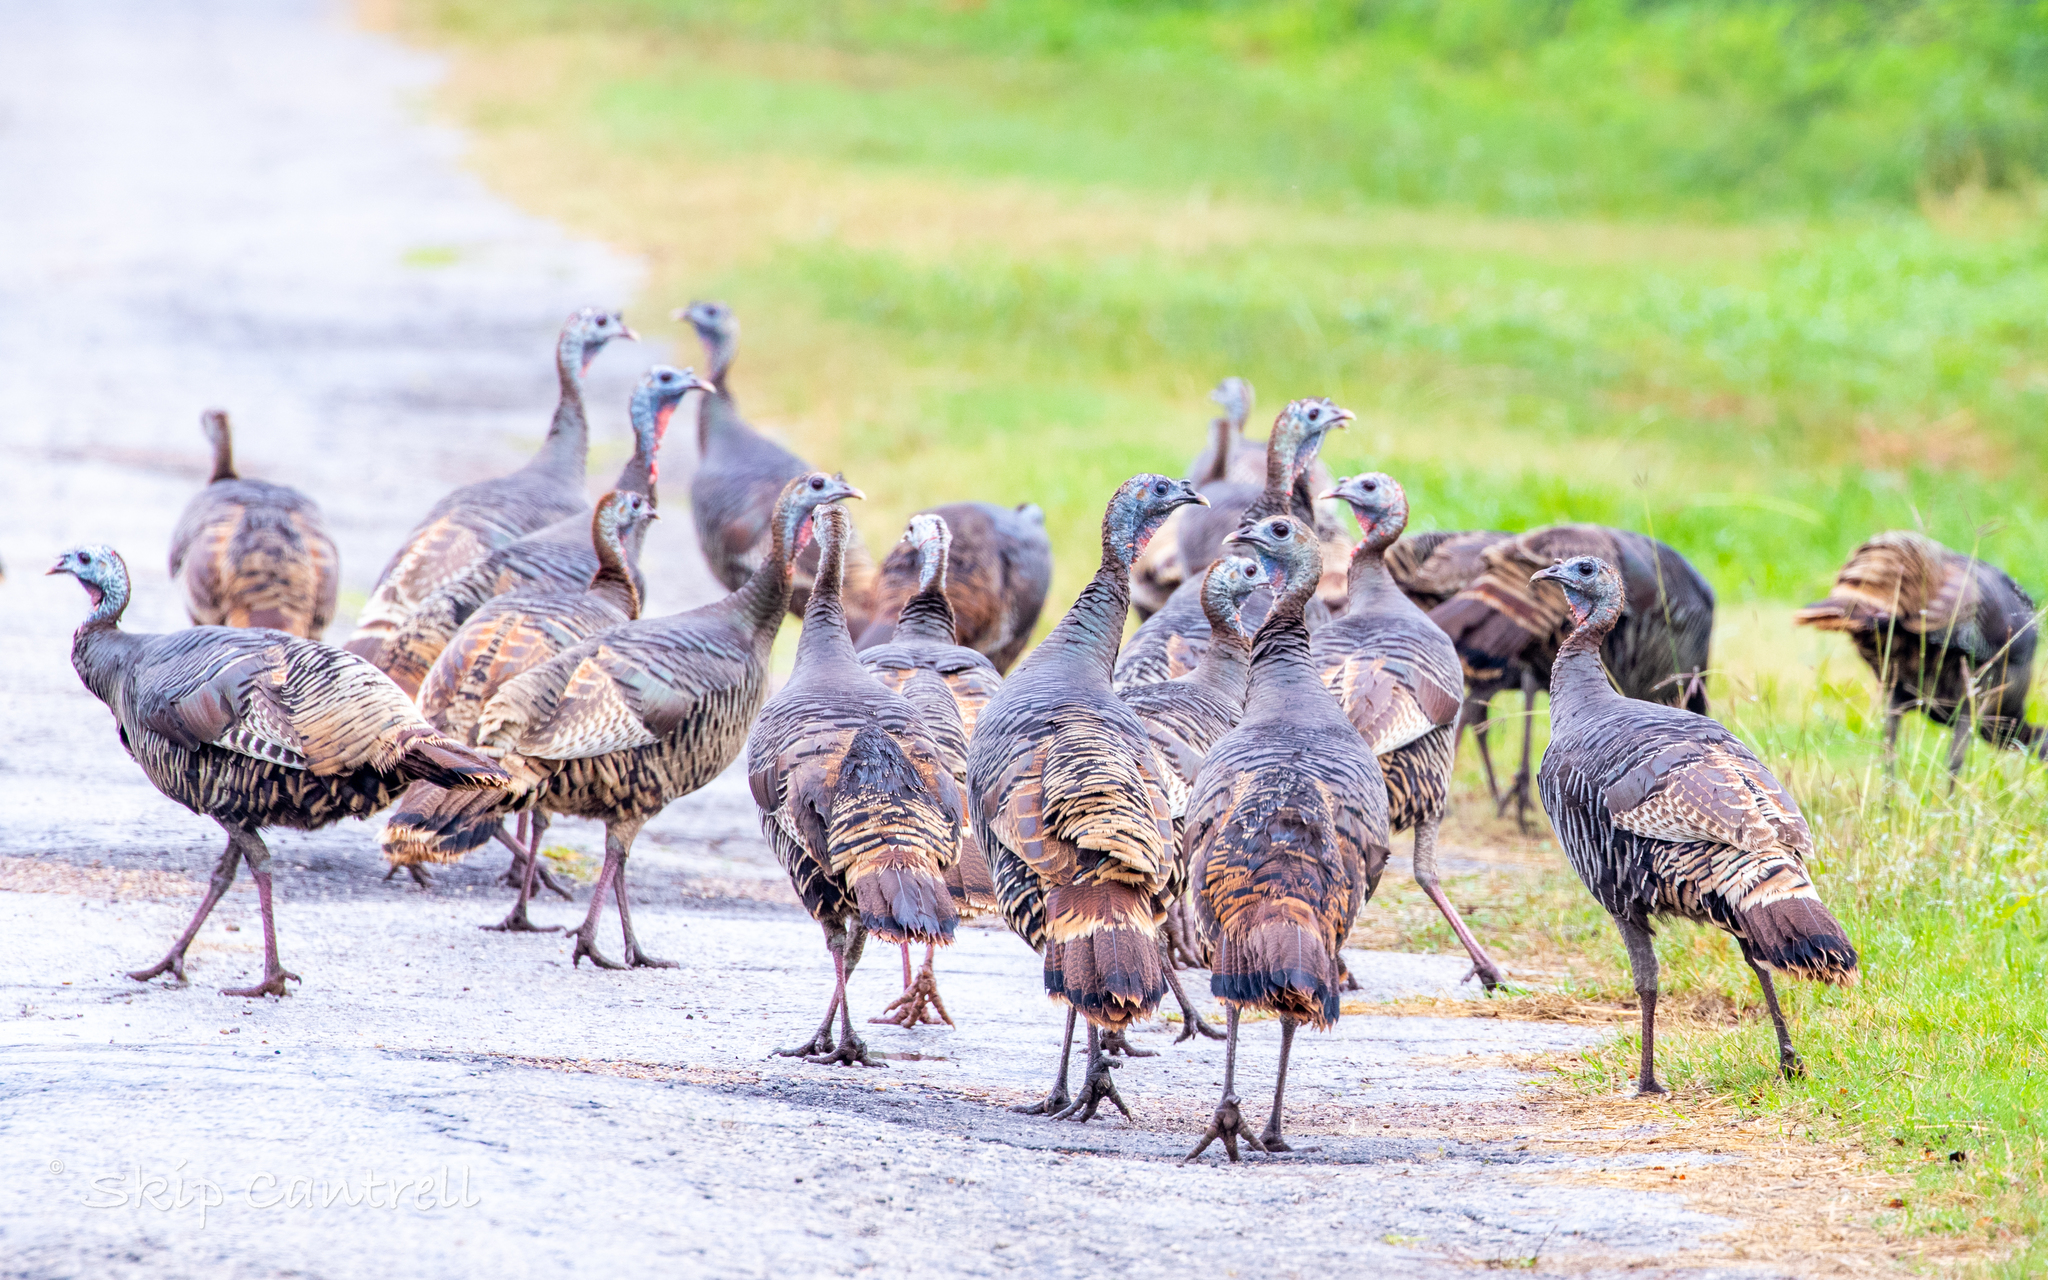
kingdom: Animalia
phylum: Chordata
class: Aves
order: Galliformes
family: Phasianidae
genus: Meleagris
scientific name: Meleagris gallopavo
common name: Wild turkey
